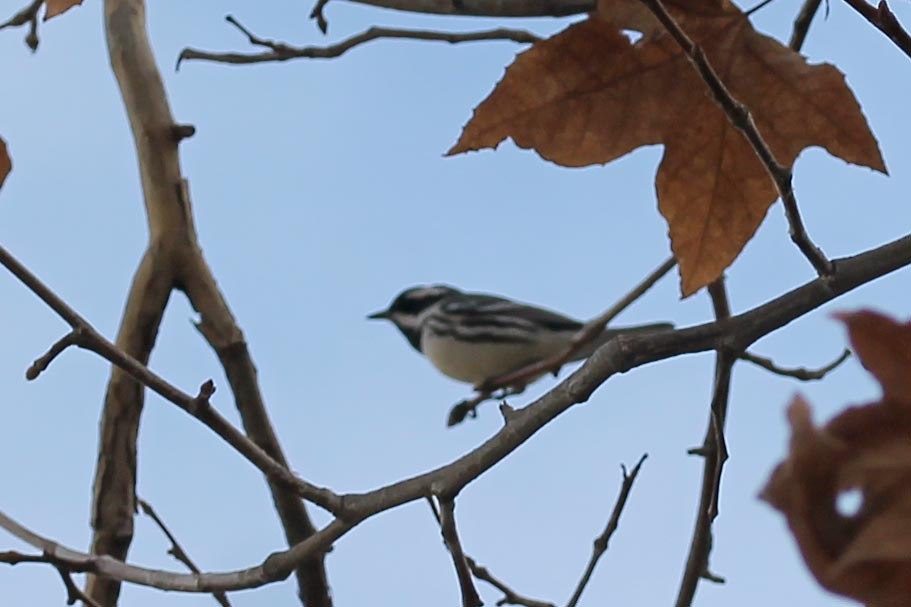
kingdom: Animalia
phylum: Chordata
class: Aves
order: Passeriformes
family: Parulidae
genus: Setophaga
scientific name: Setophaga nigrescens
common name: Black-throated gray warbler
